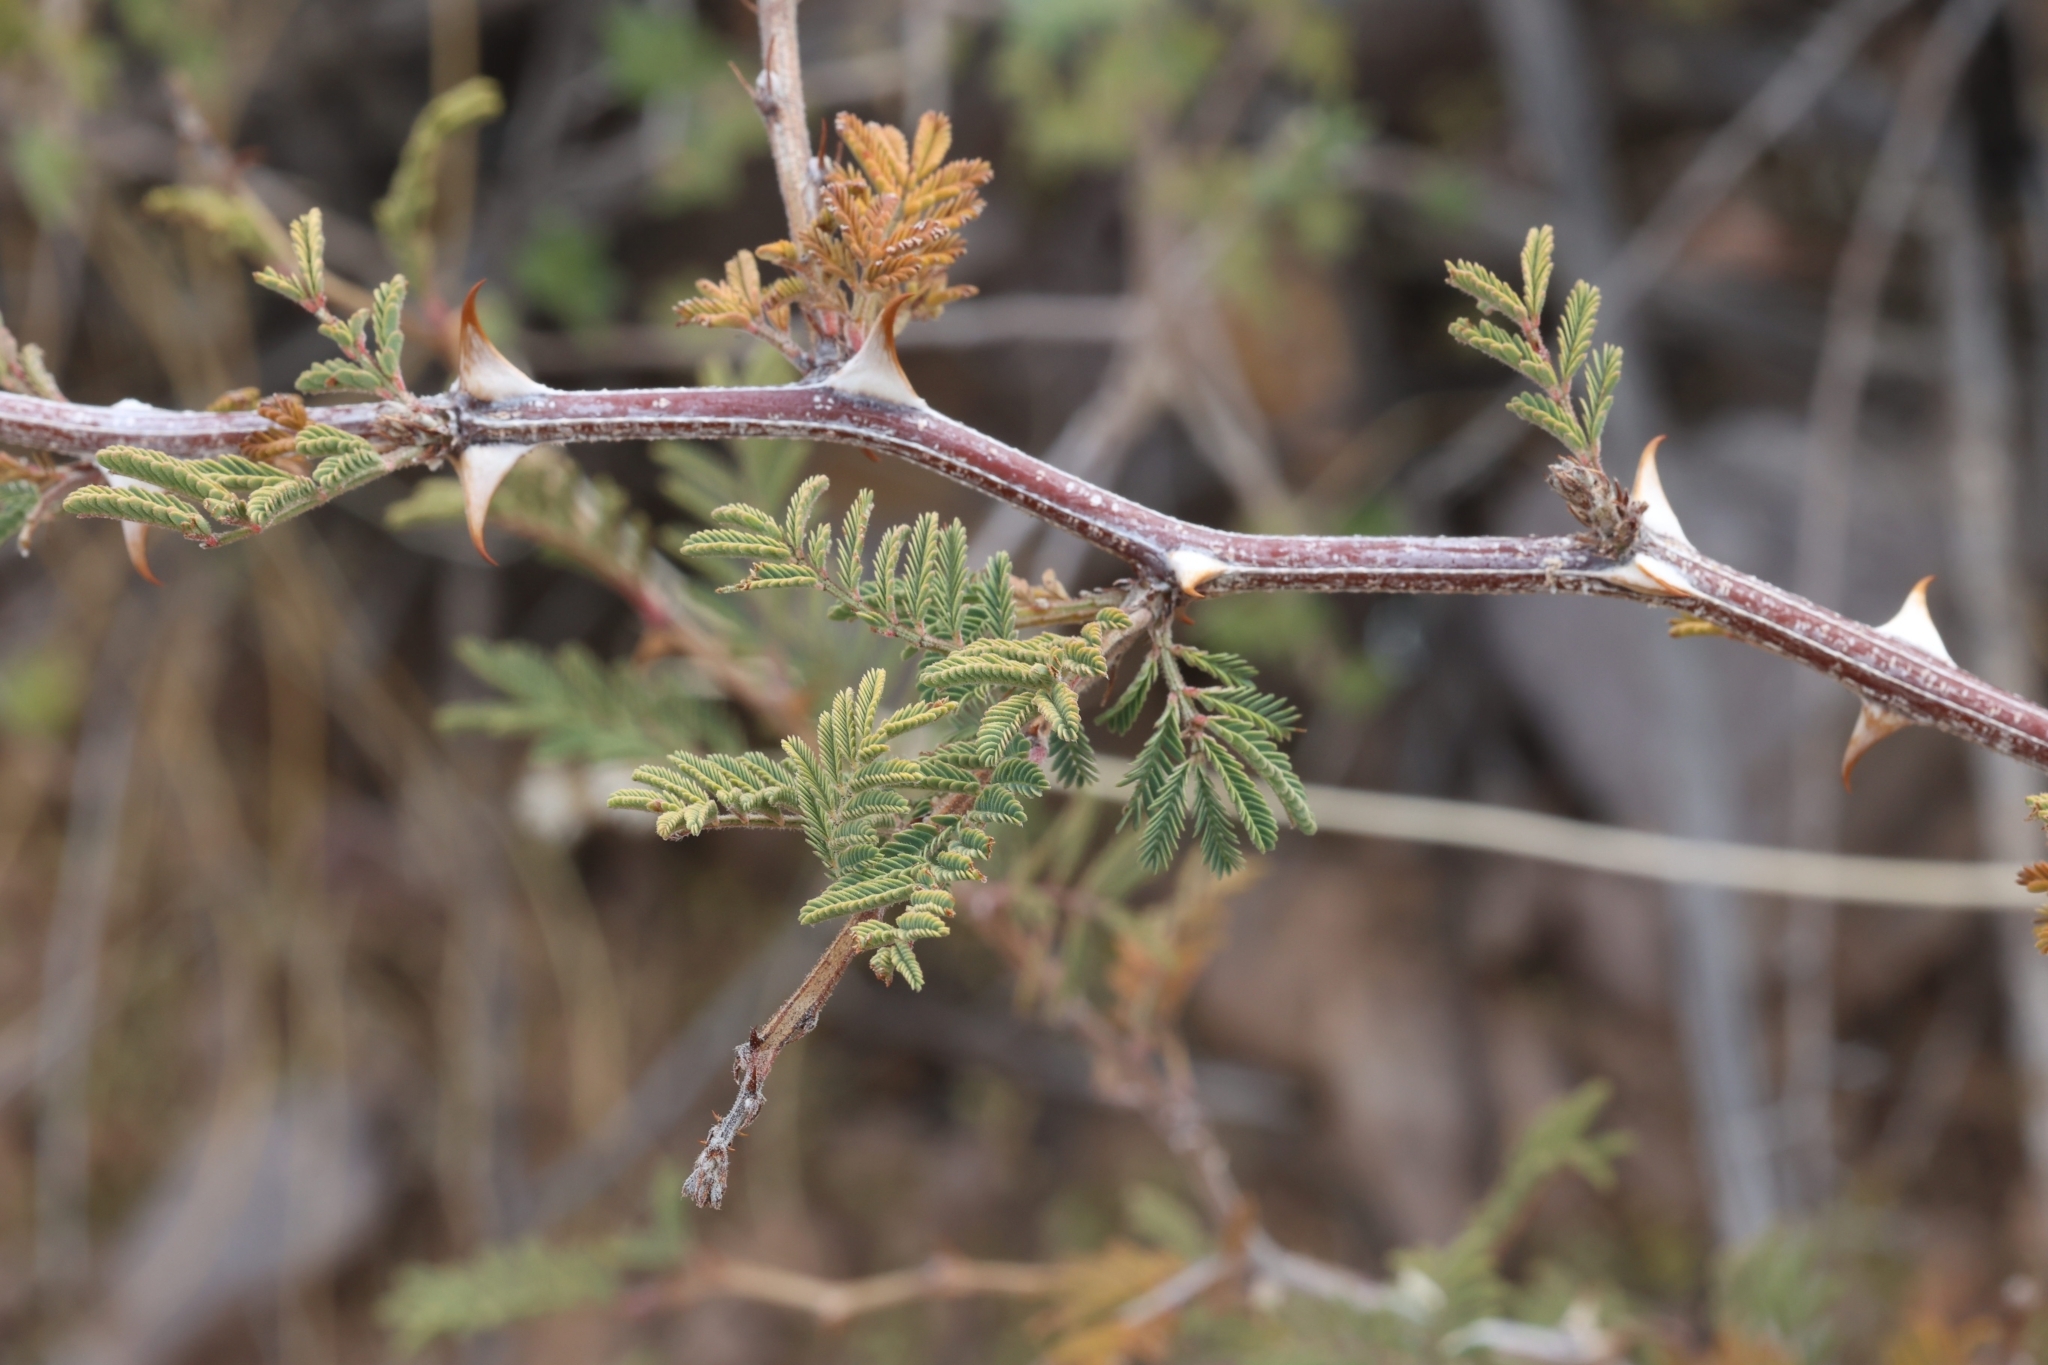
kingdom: Plantae
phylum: Tracheophyta
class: Magnoliopsida
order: Fabales
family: Fabaceae
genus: Mimosa
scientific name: Mimosa aculeaticarpa
